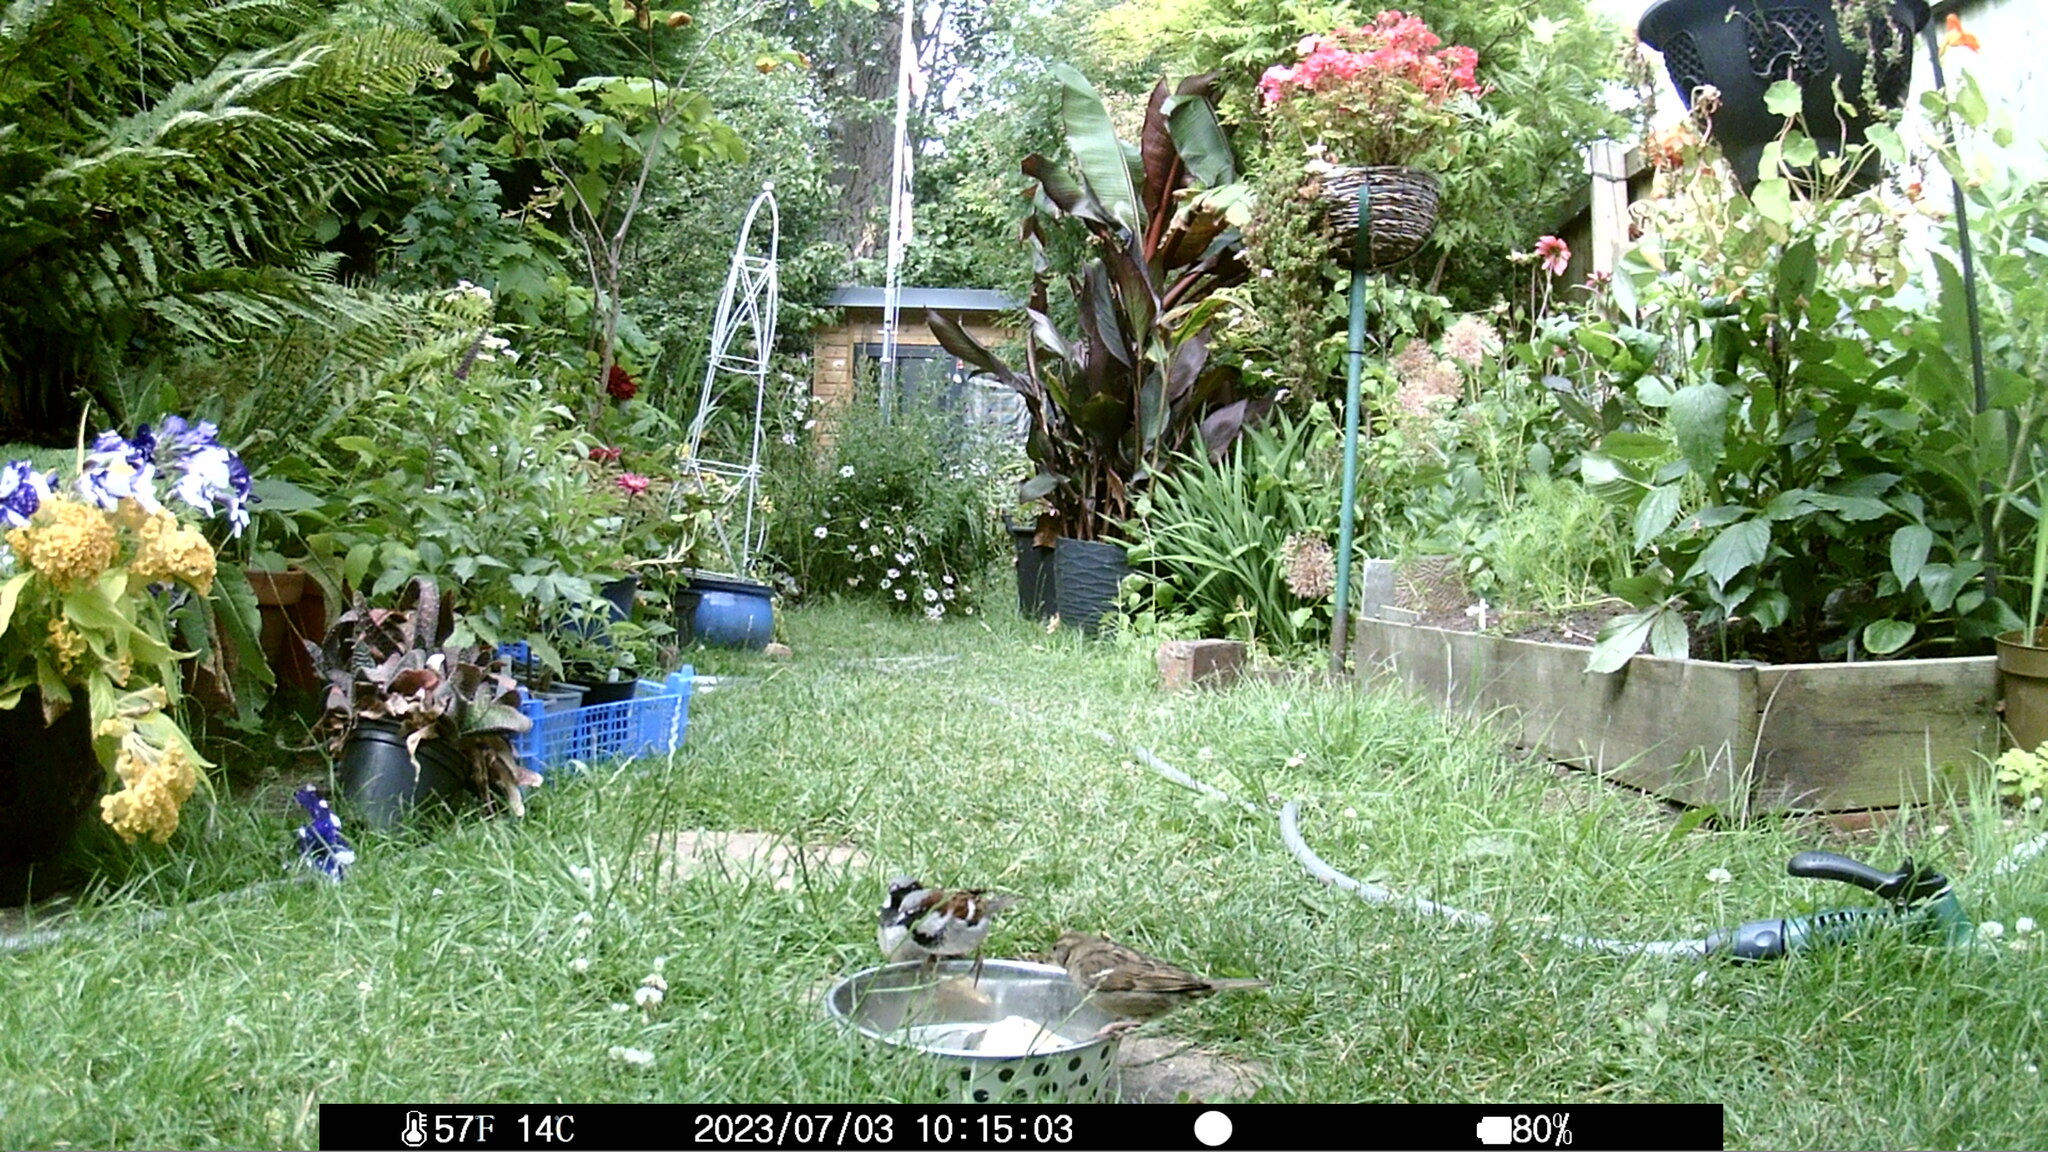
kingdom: Animalia
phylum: Chordata
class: Aves
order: Passeriformes
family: Passeridae
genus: Passer
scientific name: Passer domesticus
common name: House sparrow
